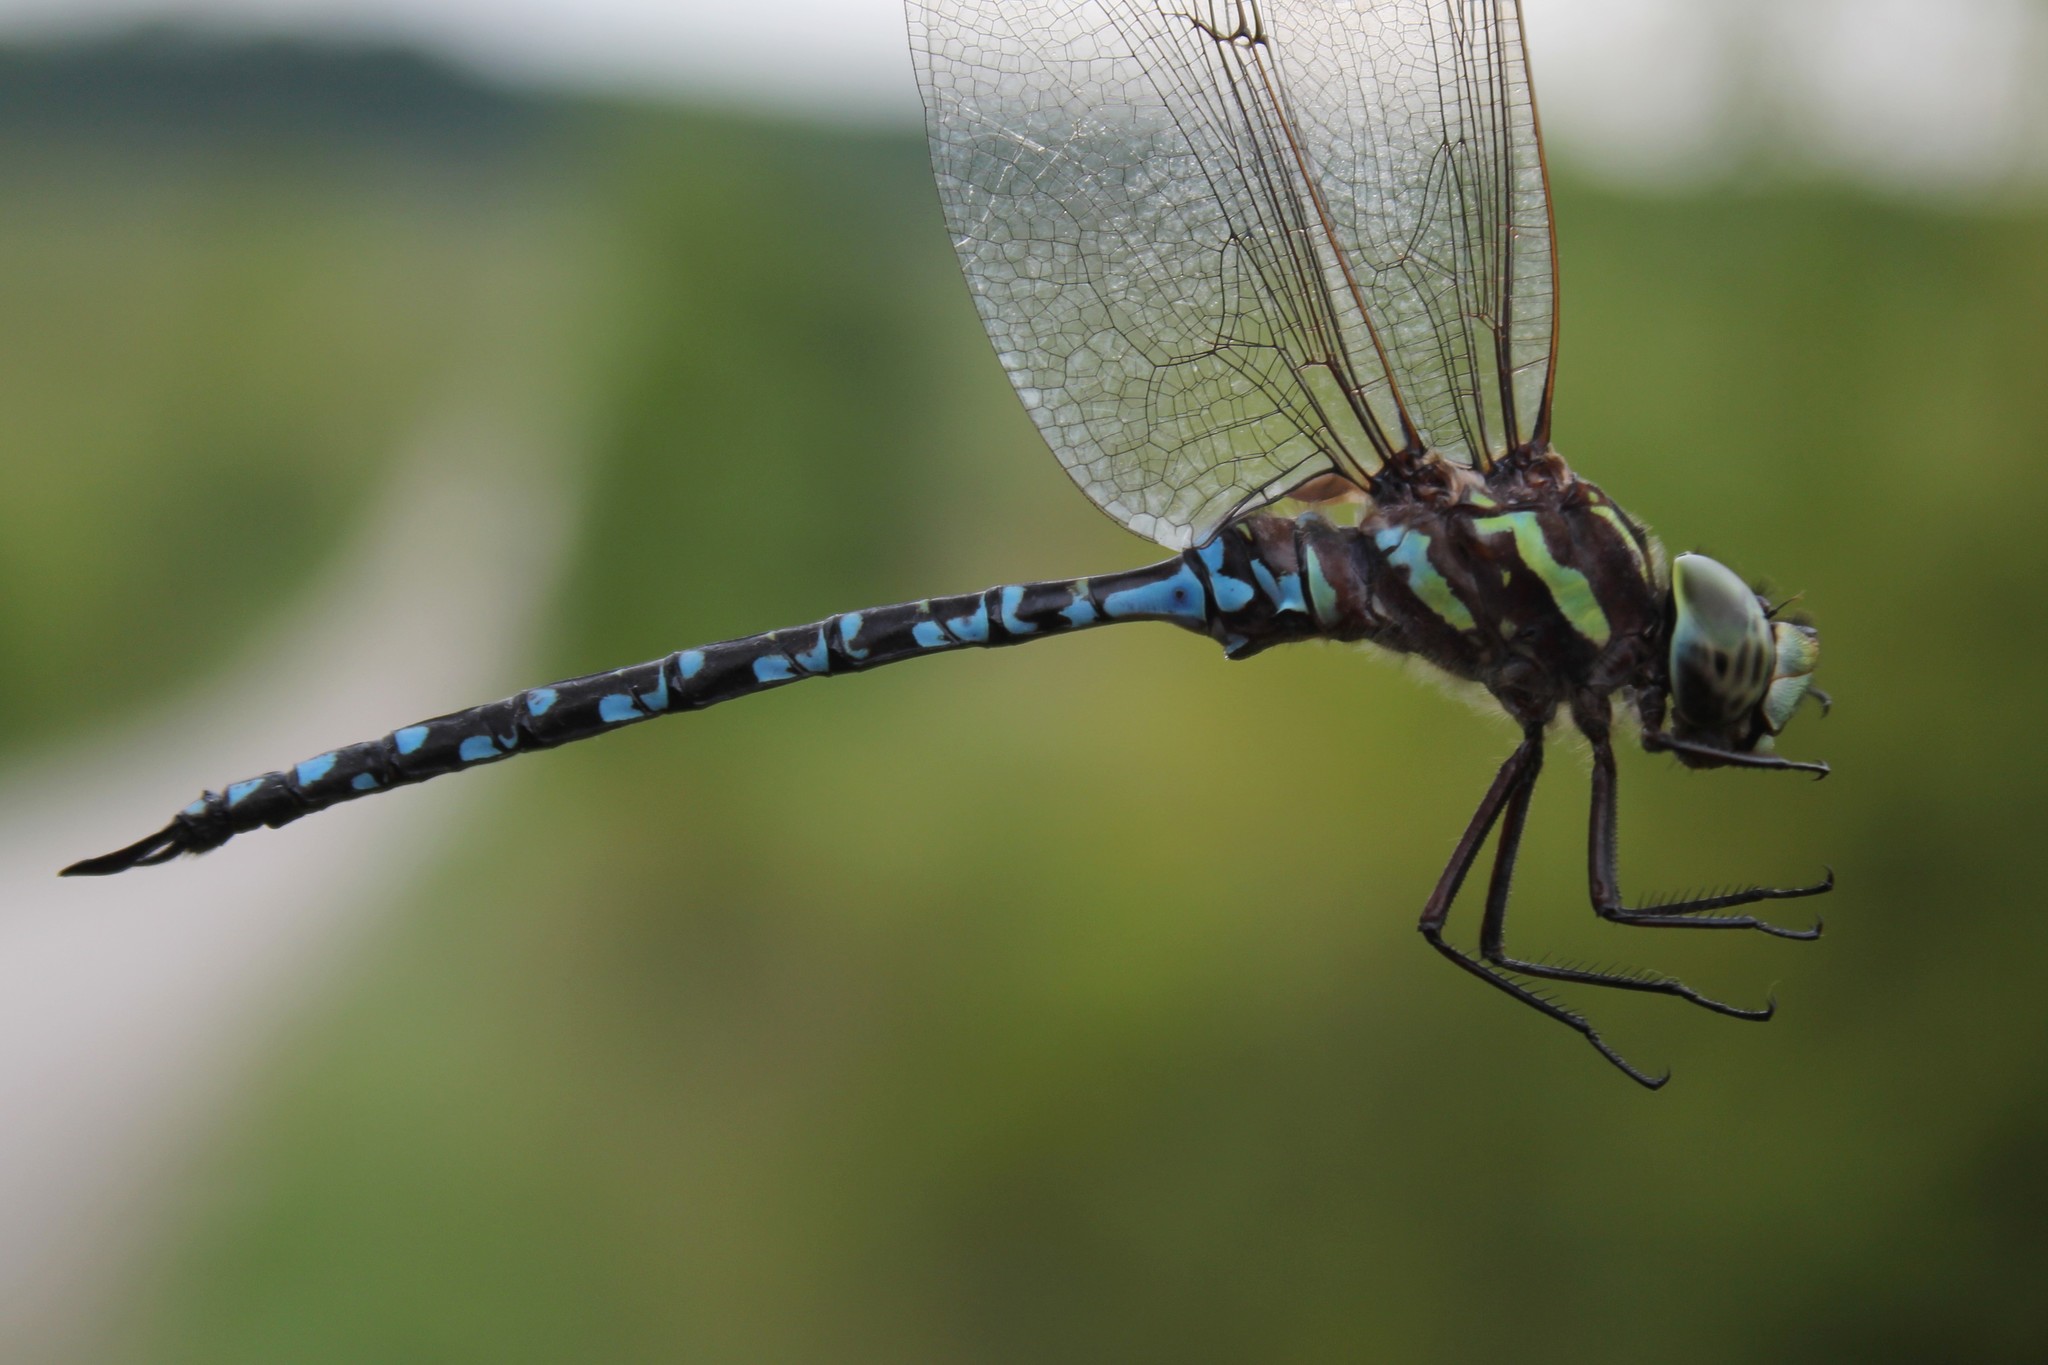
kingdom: Animalia
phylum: Arthropoda
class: Insecta
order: Odonata
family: Aeshnidae
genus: Aeshna
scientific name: Aeshna verticalis
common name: Green-striped darner
